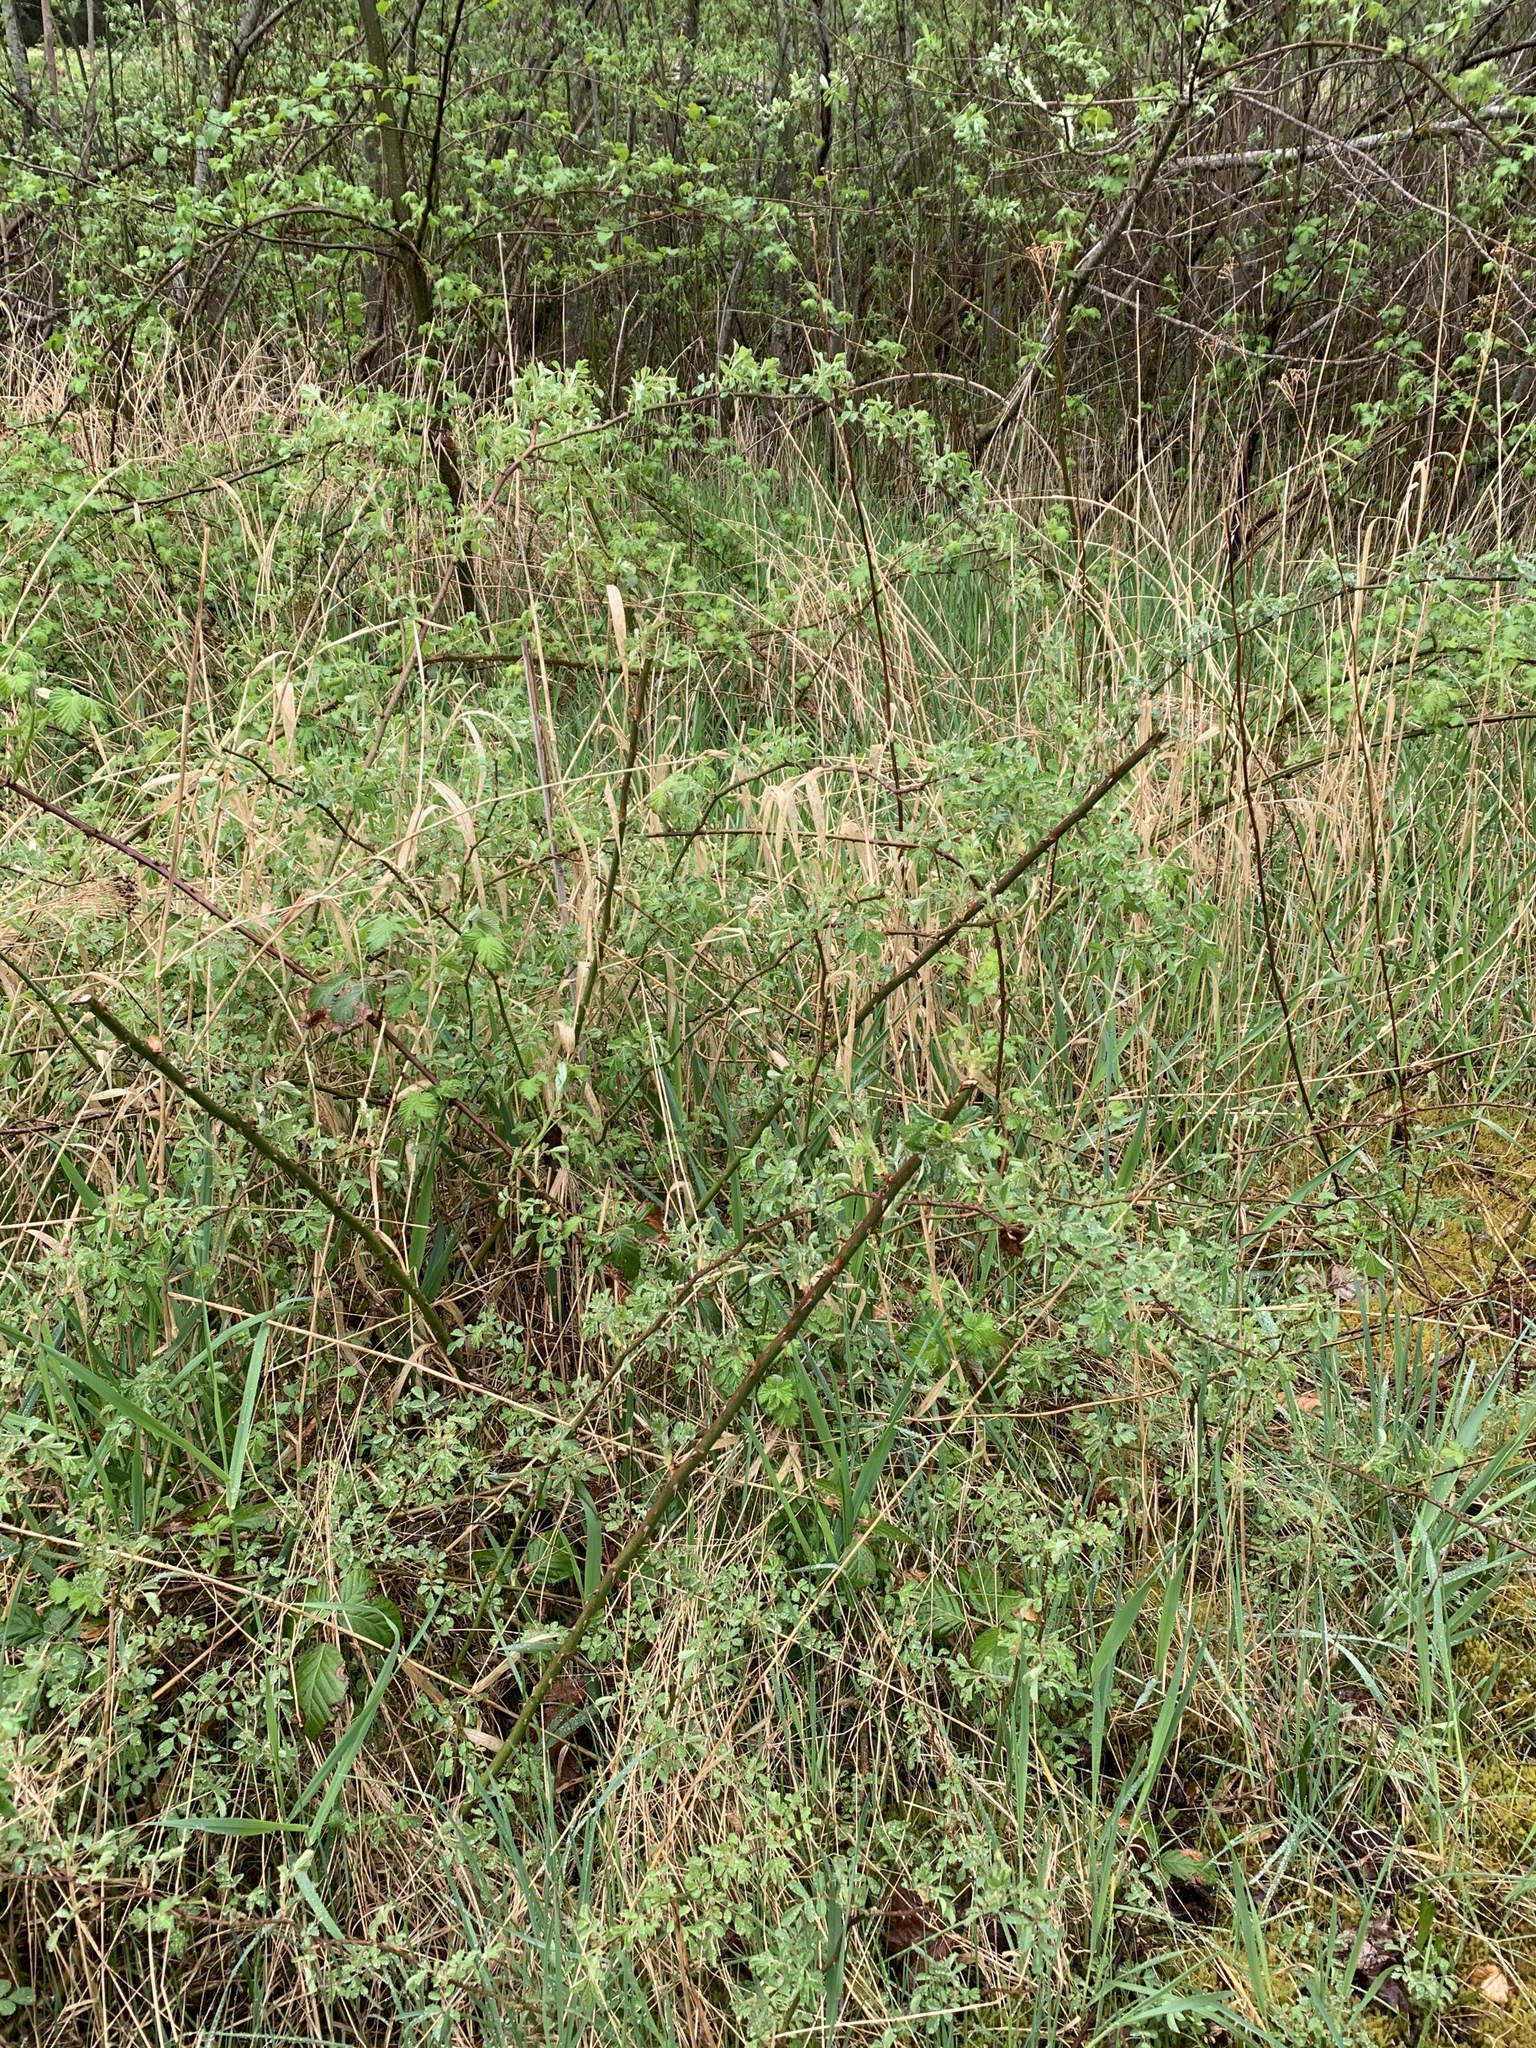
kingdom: Plantae
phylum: Tracheophyta
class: Magnoliopsida
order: Rosales
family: Rosaceae
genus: Rosa
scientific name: Rosa multiflora
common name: Multiflora rose
